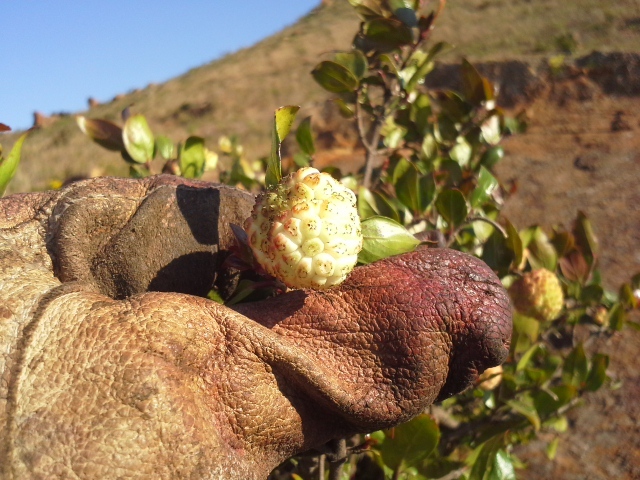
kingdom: Plantae
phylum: Tracheophyta
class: Magnoliopsida
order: Gentianales
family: Rubiaceae
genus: Cephalanthus
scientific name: Cephalanthus natalensis
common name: Strawberry bush
